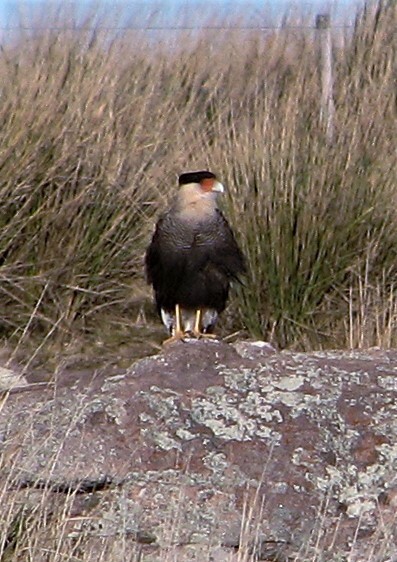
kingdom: Animalia
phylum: Chordata
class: Aves
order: Falconiformes
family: Falconidae
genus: Caracara
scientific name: Caracara plancus
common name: Southern caracara
